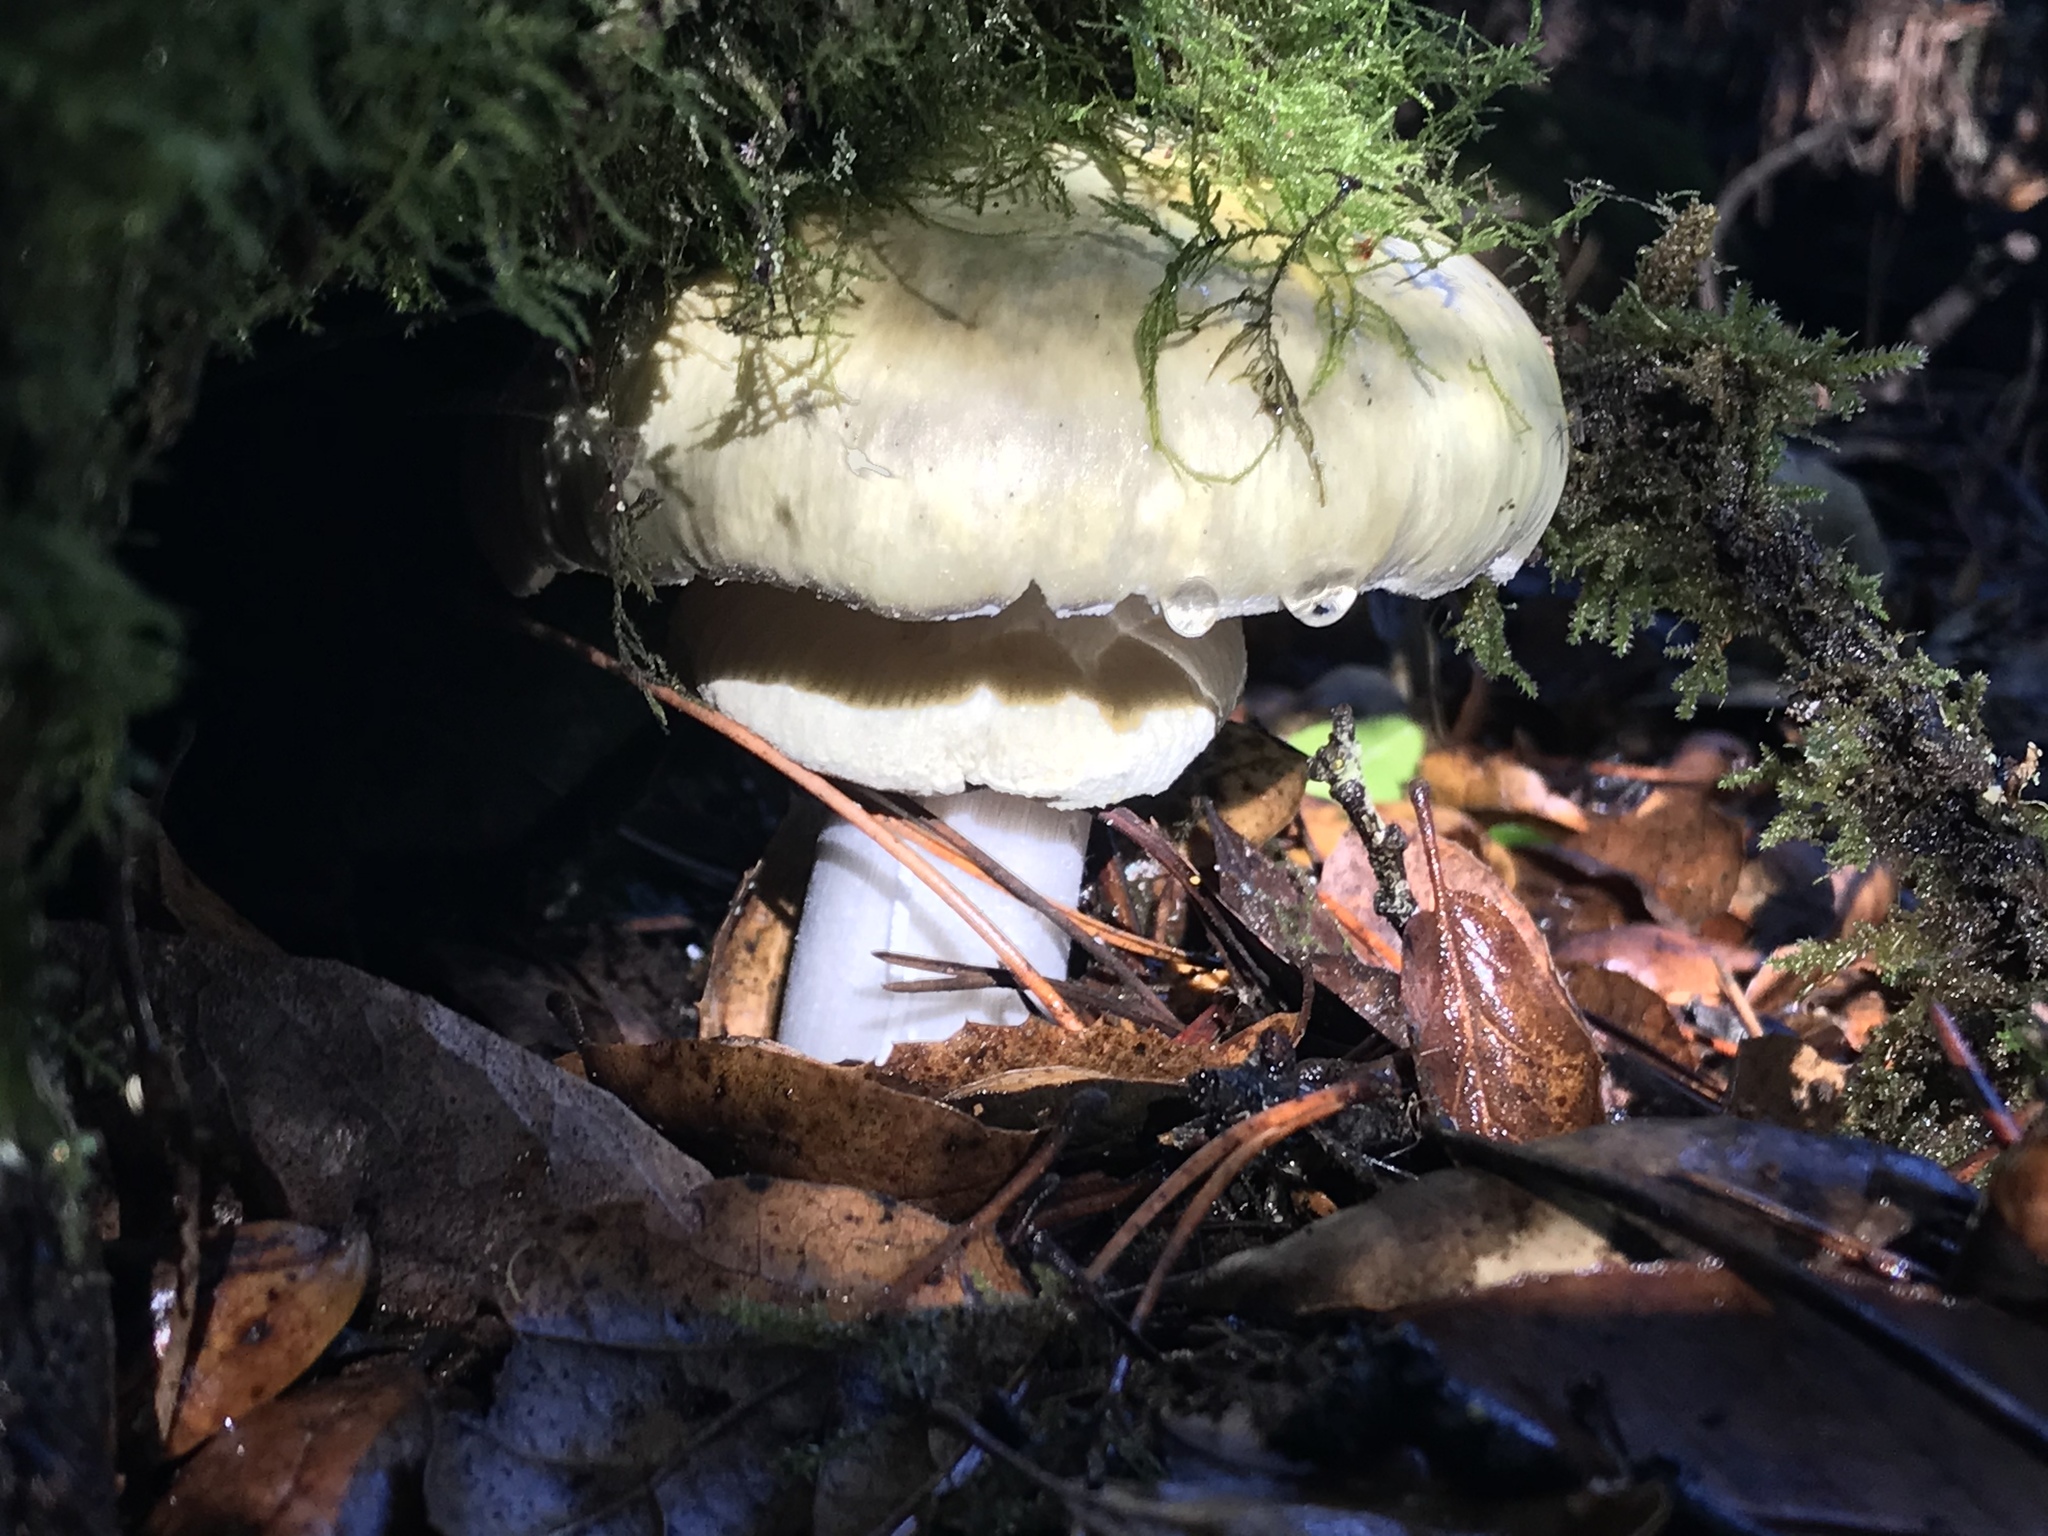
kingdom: Fungi
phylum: Basidiomycota
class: Agaricomycetes
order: Agaricales
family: Amanitaceae
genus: Amanita
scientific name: Amanita phalloides
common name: Death cap
